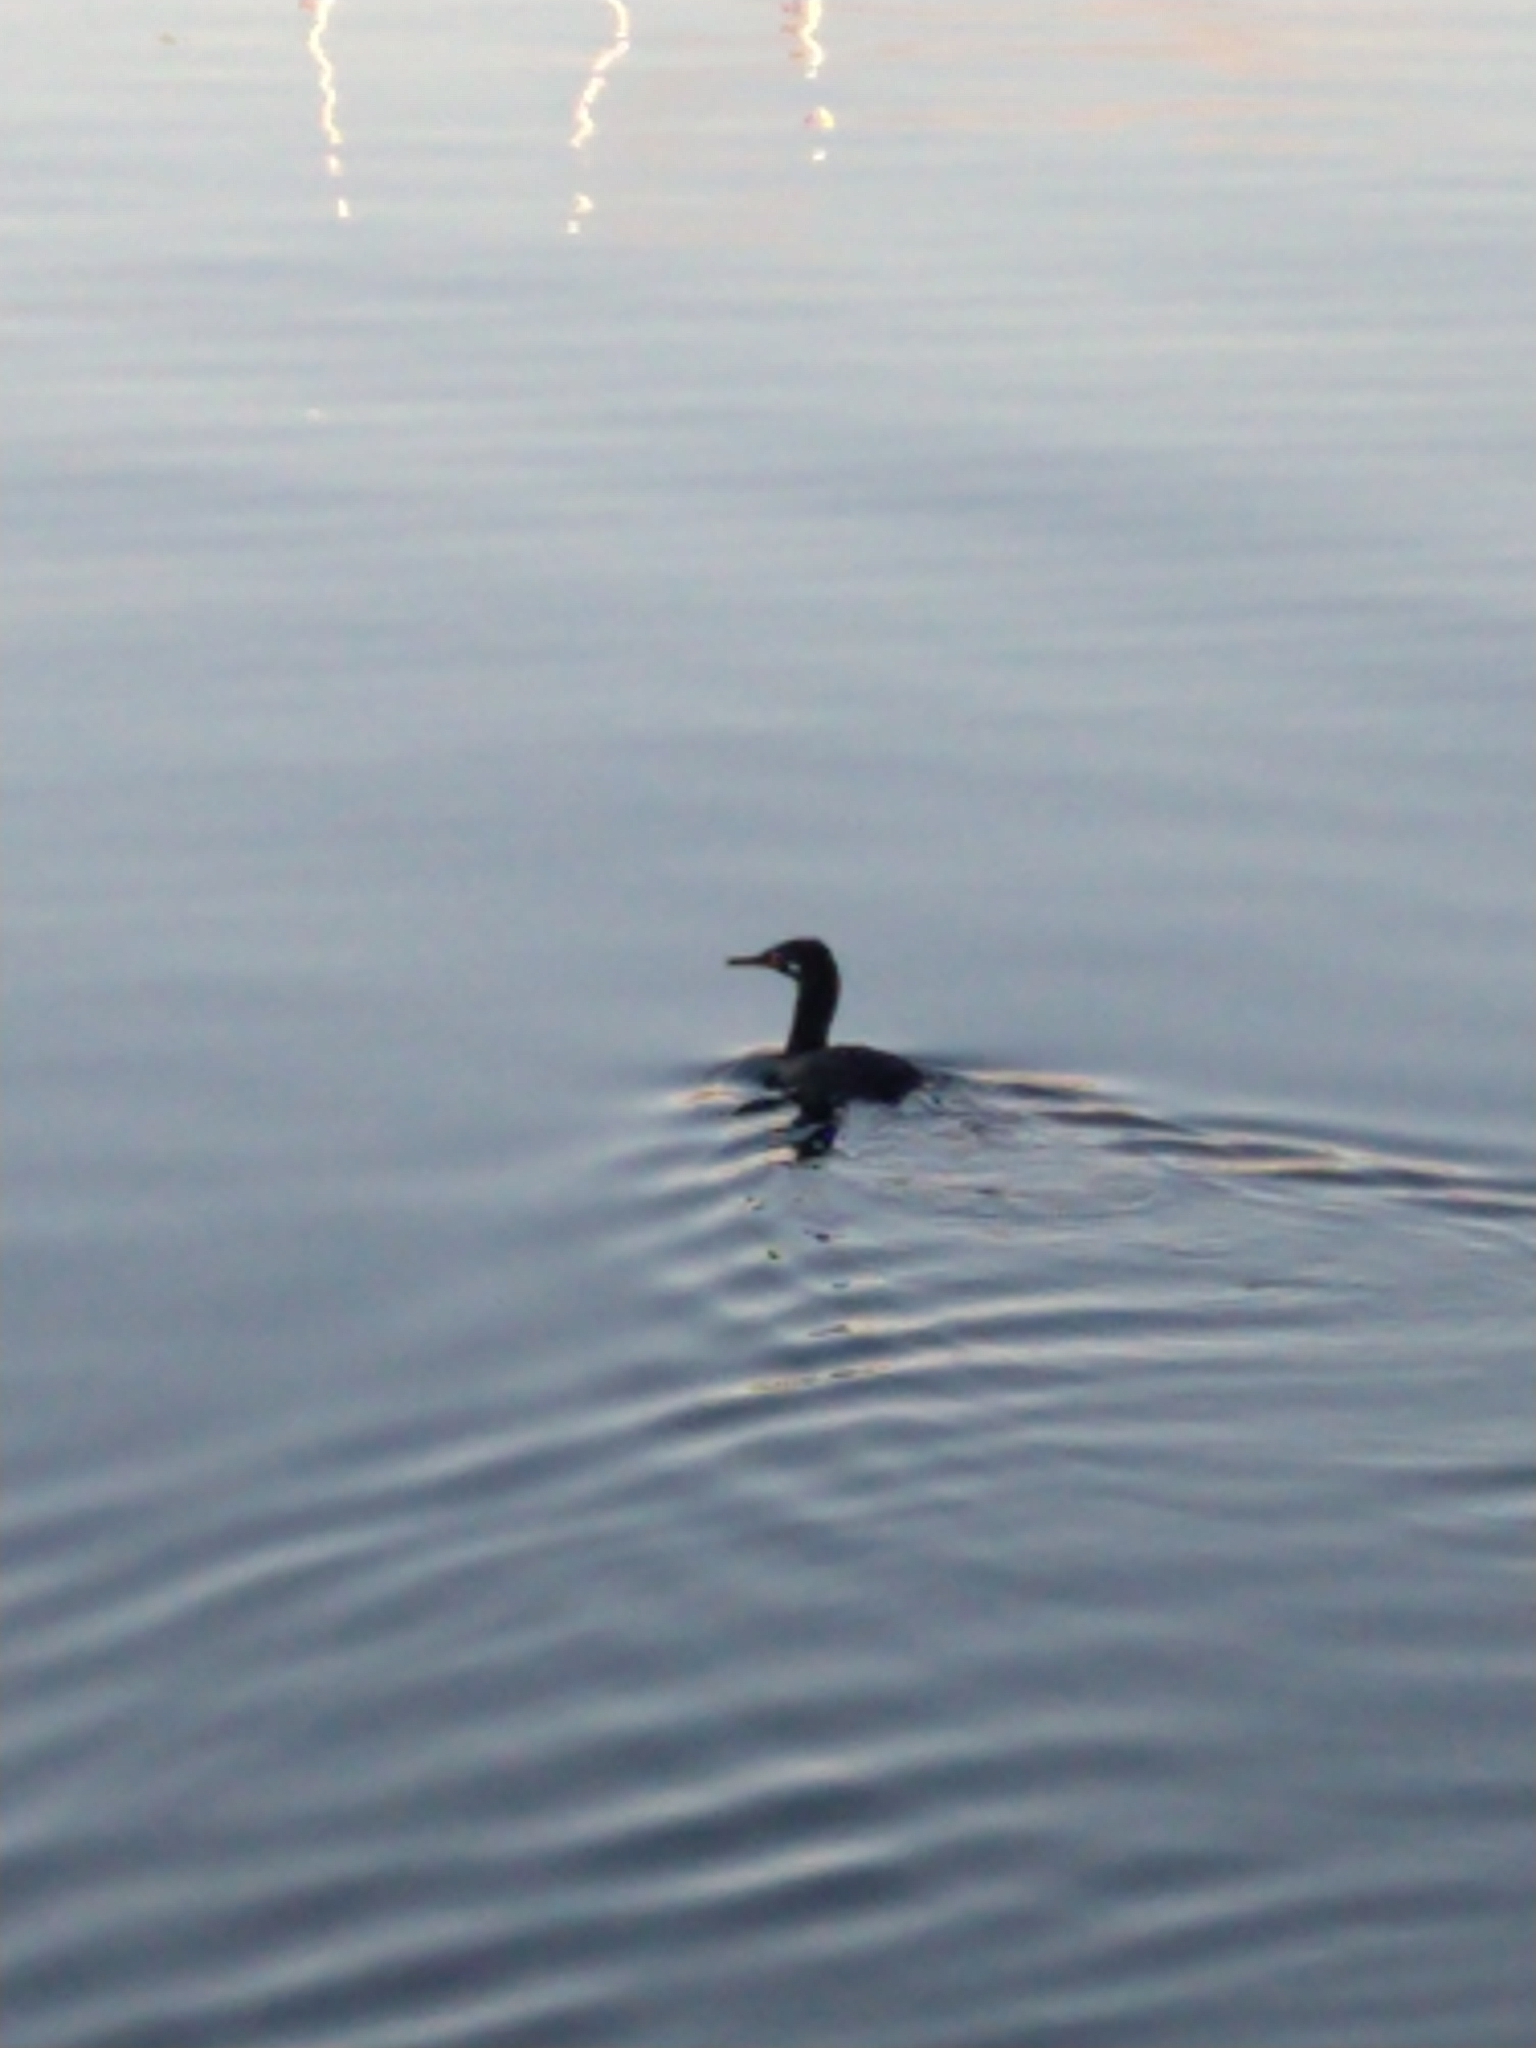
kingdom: Animalia
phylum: Chordata
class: Aves
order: Suliformes
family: Phalacrocoracidae
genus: Phalacrocorax
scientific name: Phalacrocorax magellanicus
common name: Rock shag
